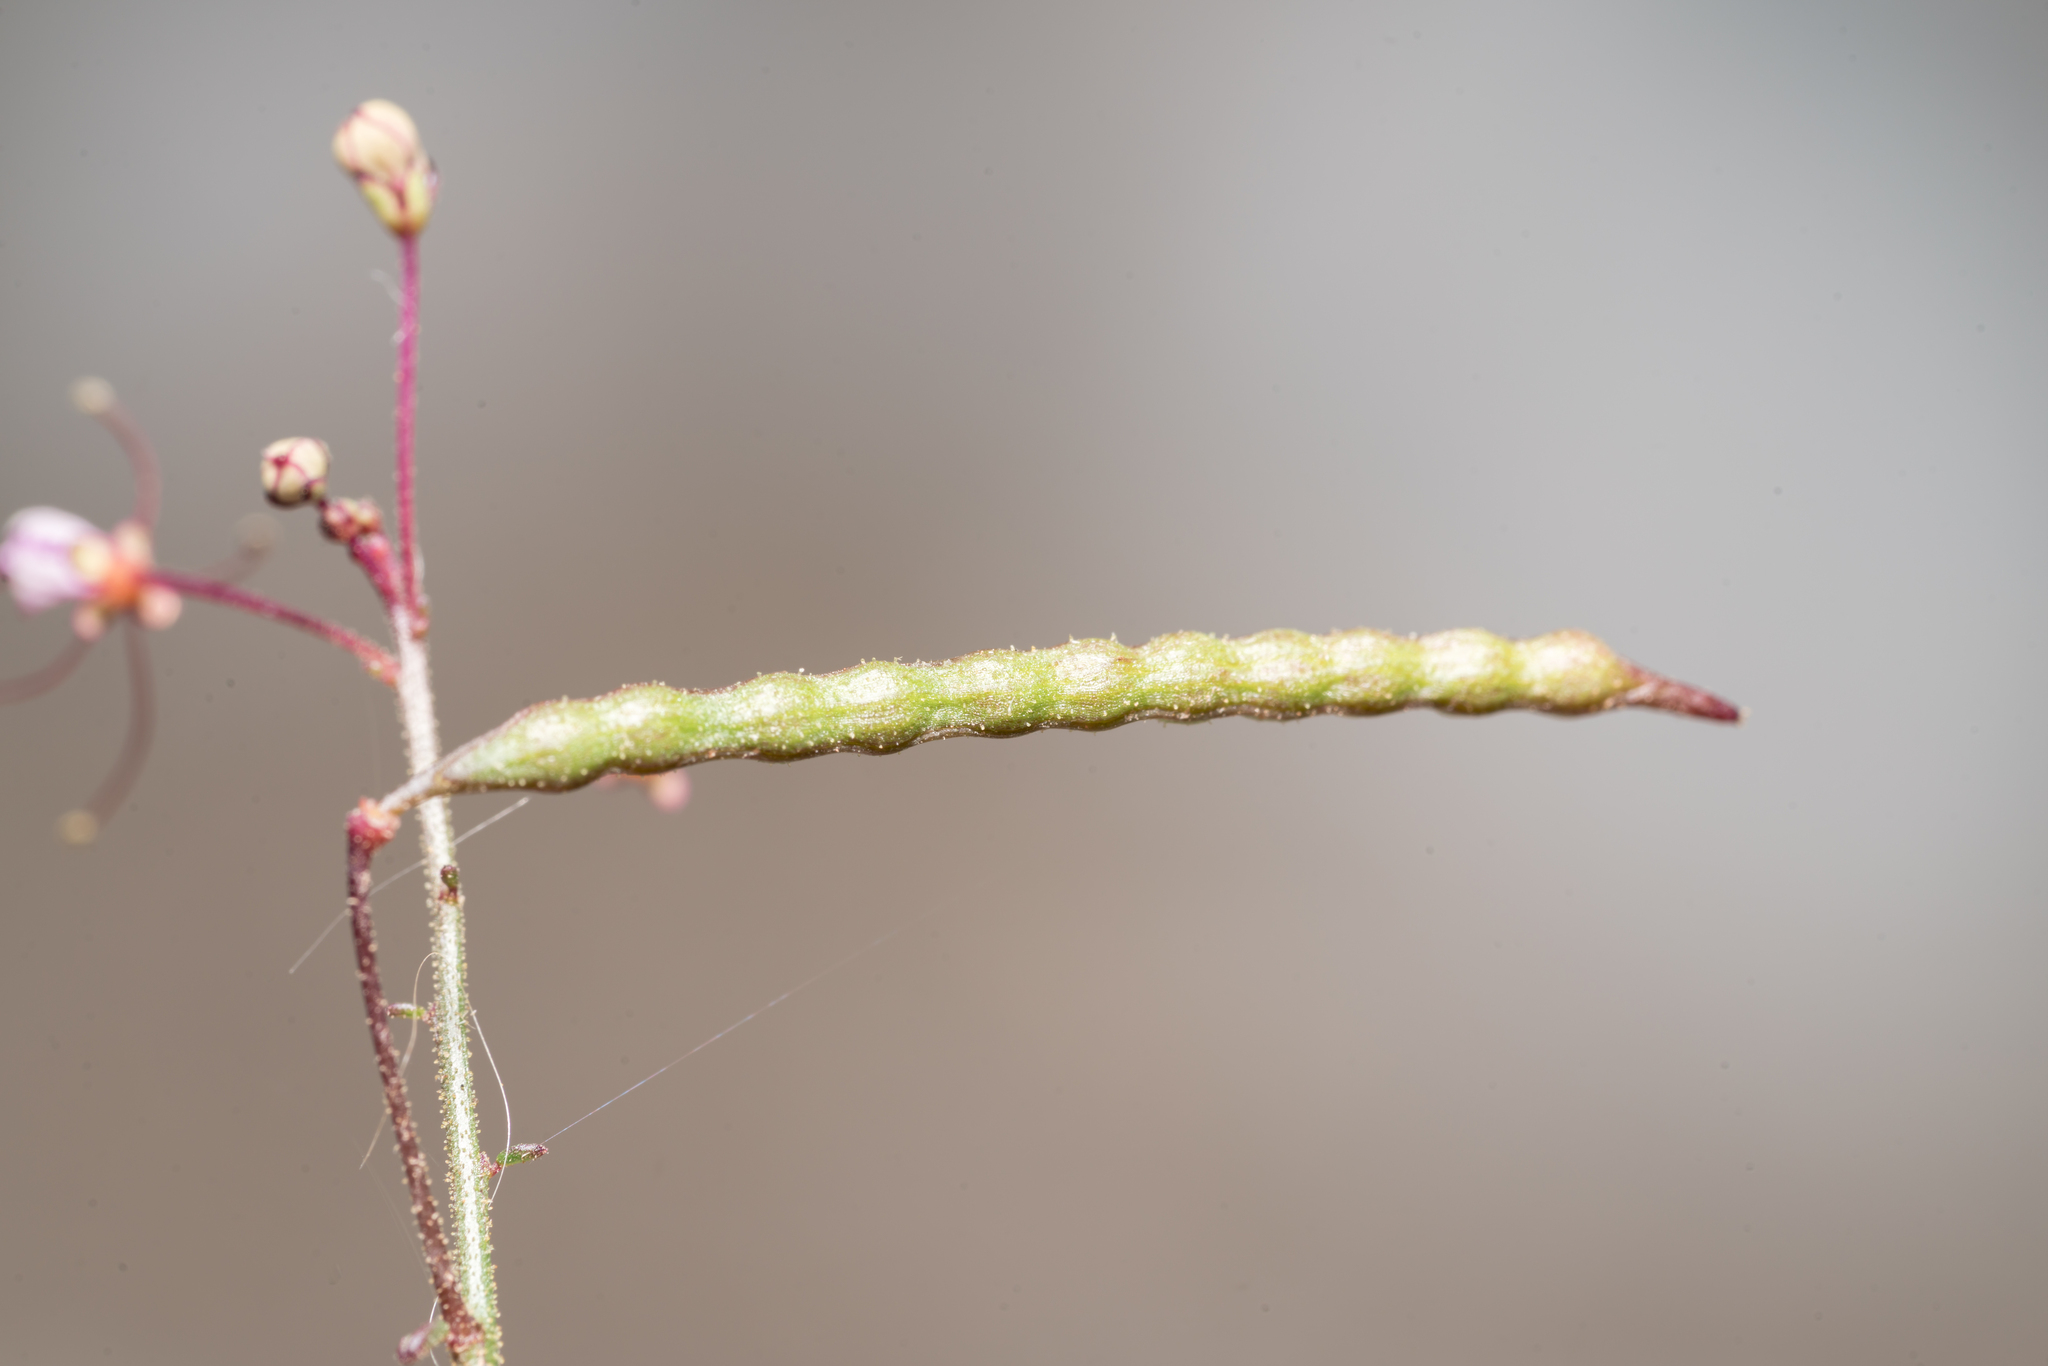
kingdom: Plantae
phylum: Tracheophyta
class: Magnoliopsida
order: Brassicales
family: Cleomaceae
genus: Cleome
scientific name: Cleome iberica
